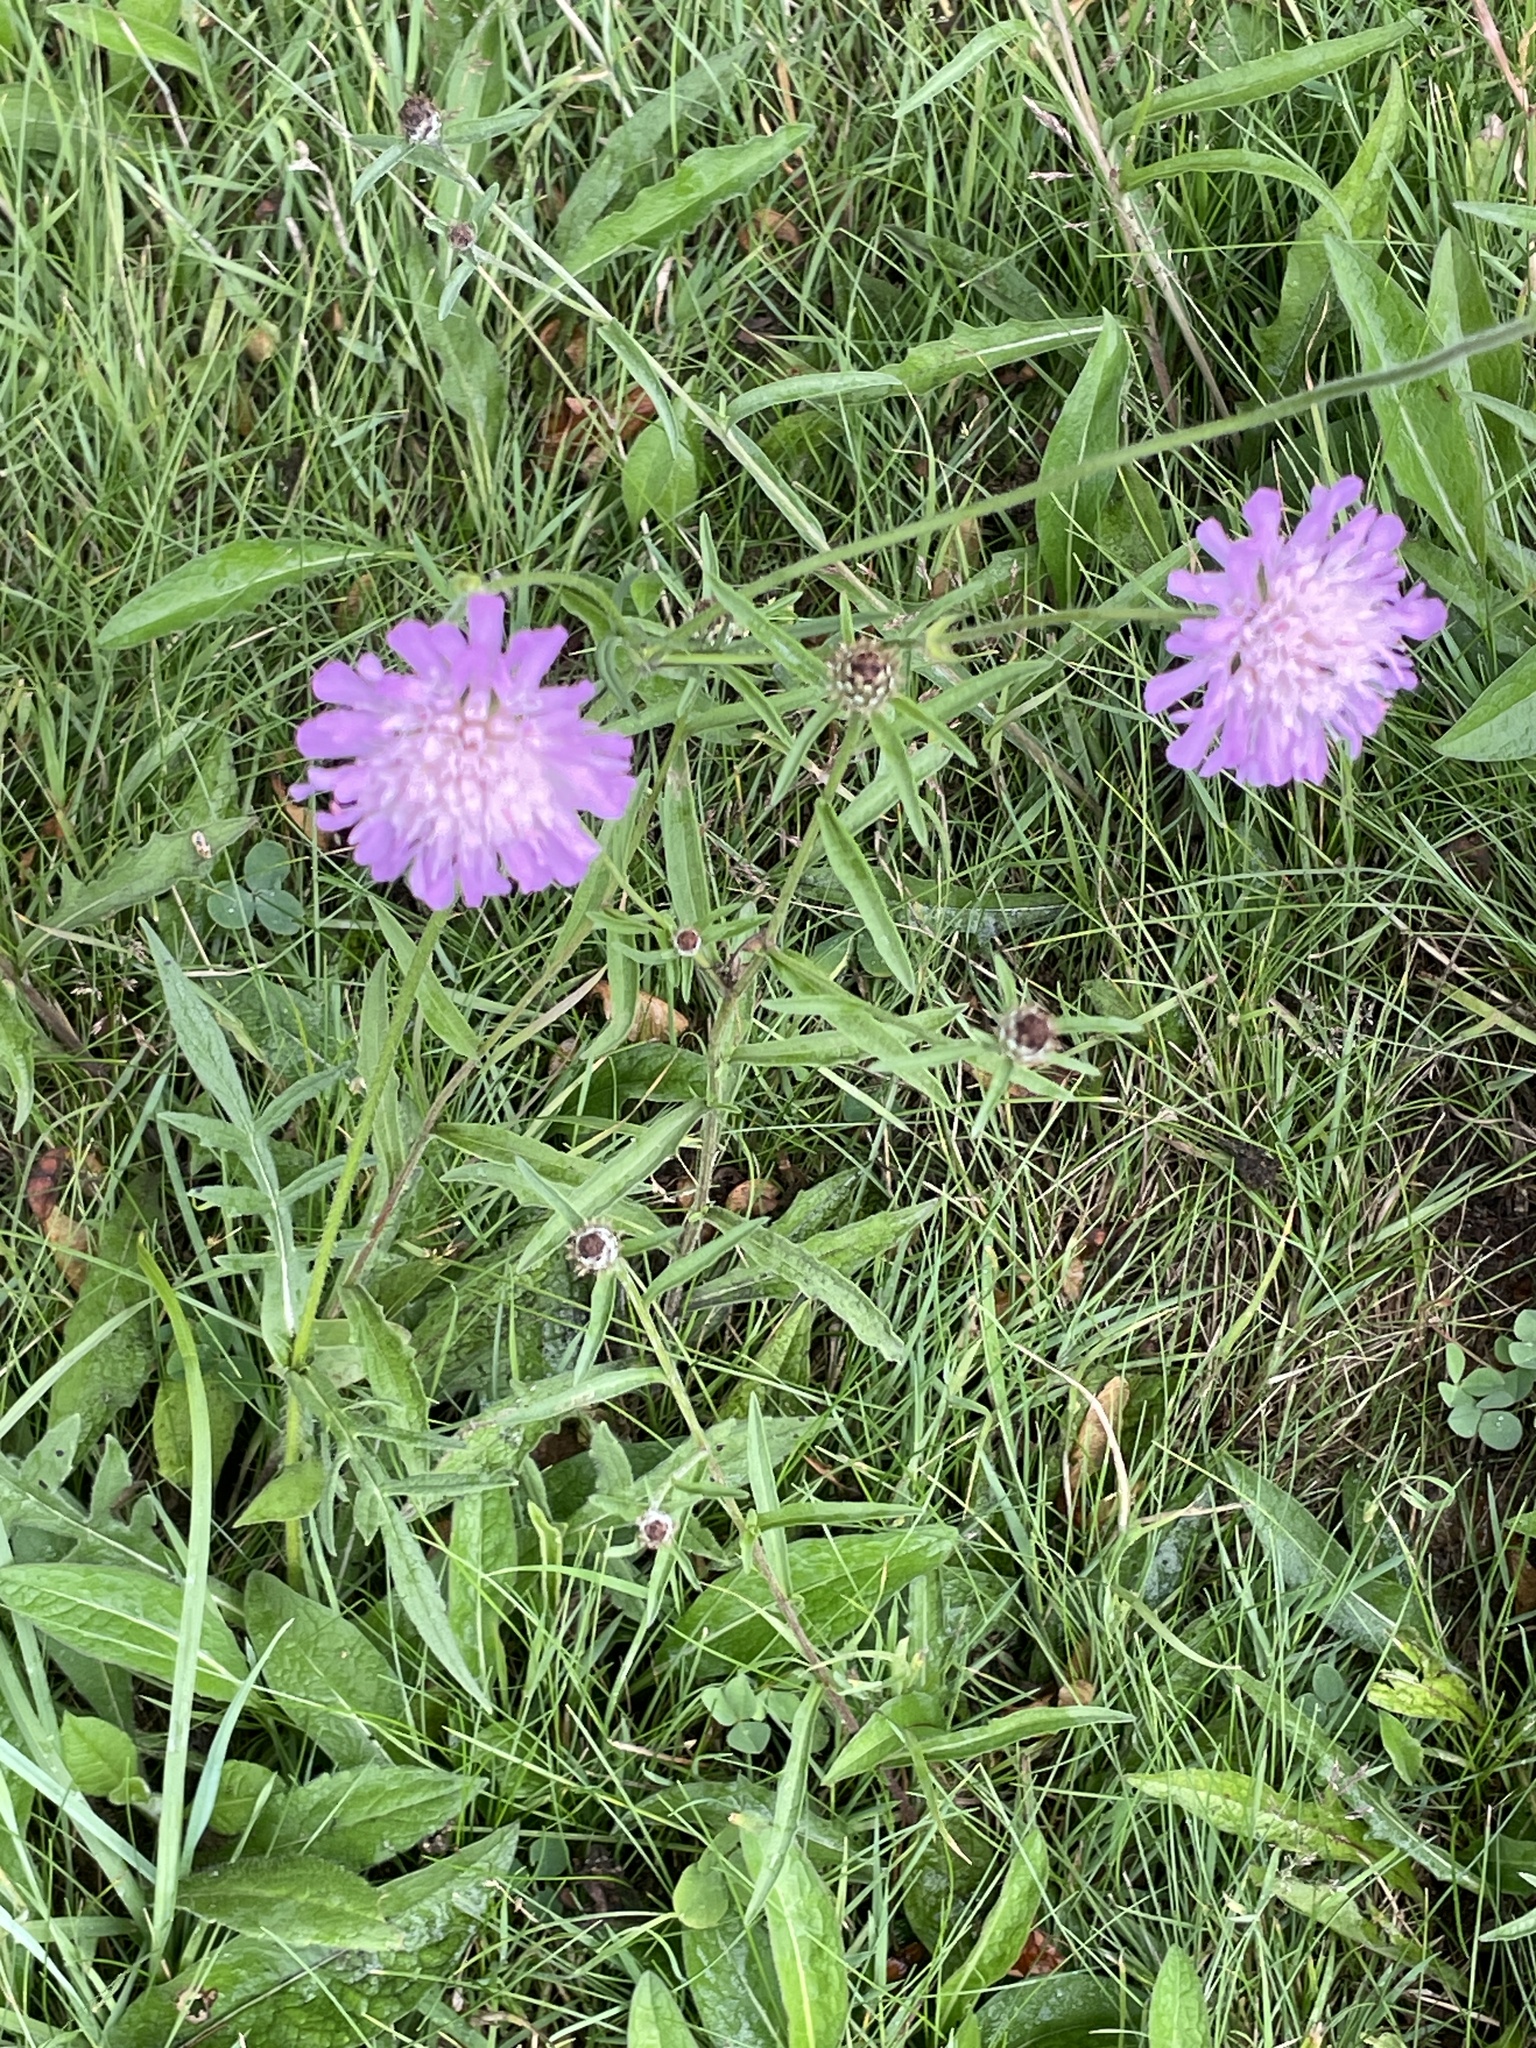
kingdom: Plantae
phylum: Tracheophyta
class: Magnoliopsida
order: Dipsacales
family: Caprifoliaceae
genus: Knautia
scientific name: Knautia arvensis
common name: Field scabiosa
